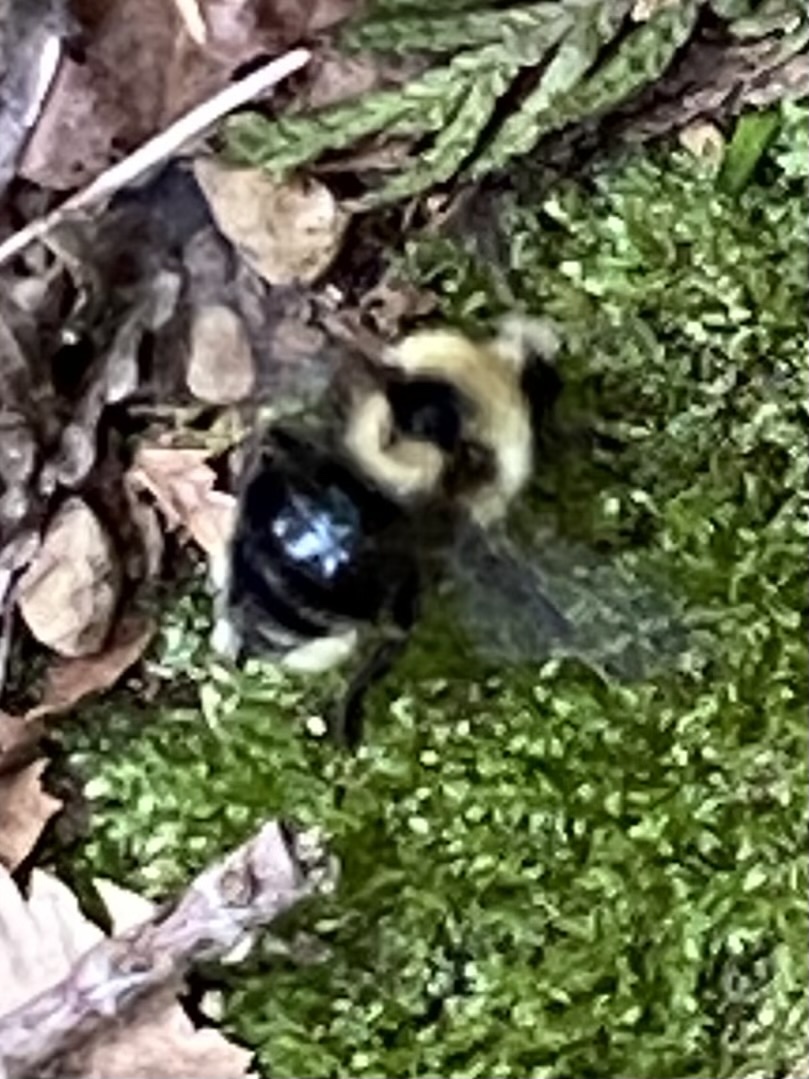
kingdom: Animalia
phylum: Arthropoda
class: Insecta
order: Hymenoptera
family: Apidae
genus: Bombus
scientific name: Bombus insularis
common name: Indiscriminate cuckoo bumble bee
